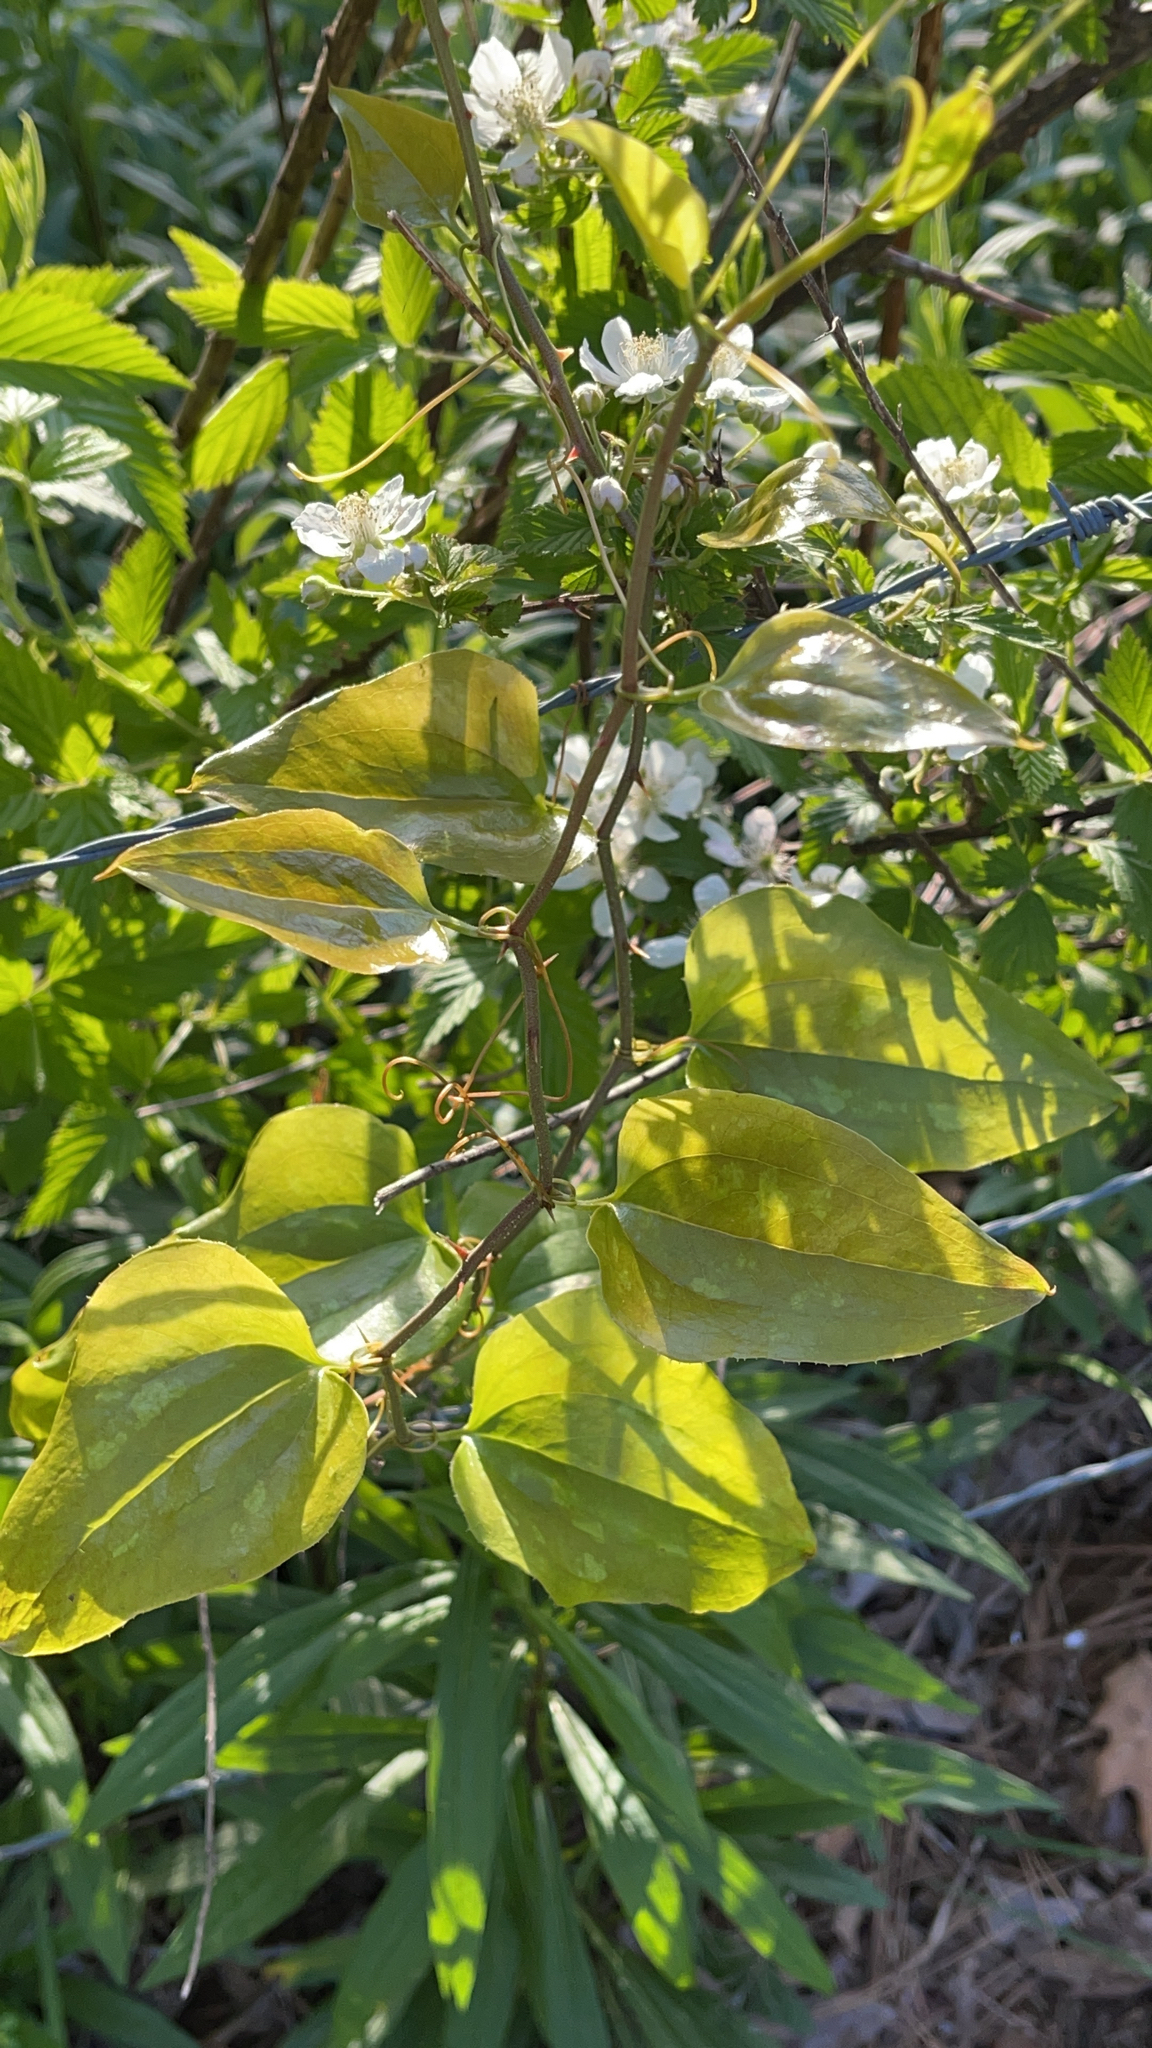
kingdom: Plantae
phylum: Tracheophyta
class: Liliopsida
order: Liliales
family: Smilacaceae
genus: Smilax
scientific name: Smilax bona-nox
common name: Catbrier
